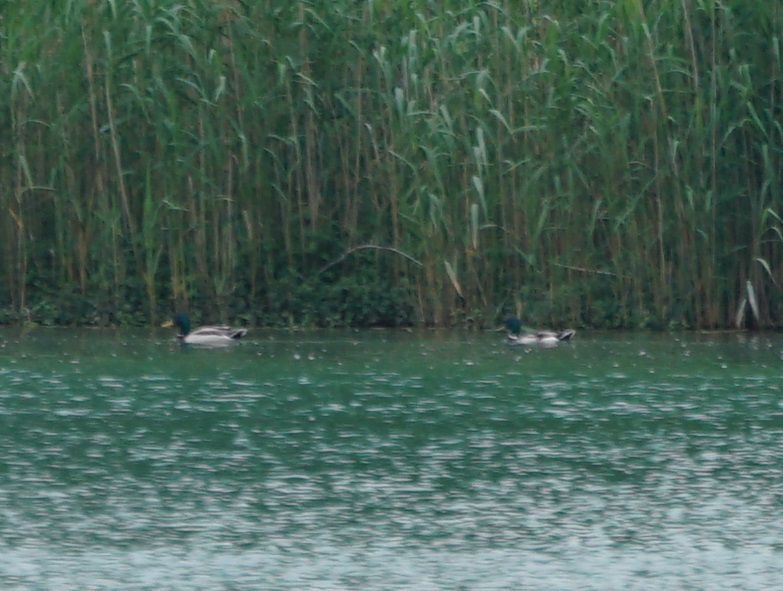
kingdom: Animalia
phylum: Chordata
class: Aves
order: Anseriformes
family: Anatidae
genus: Anas
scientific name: Anas platyrhynchos
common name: Mallard
